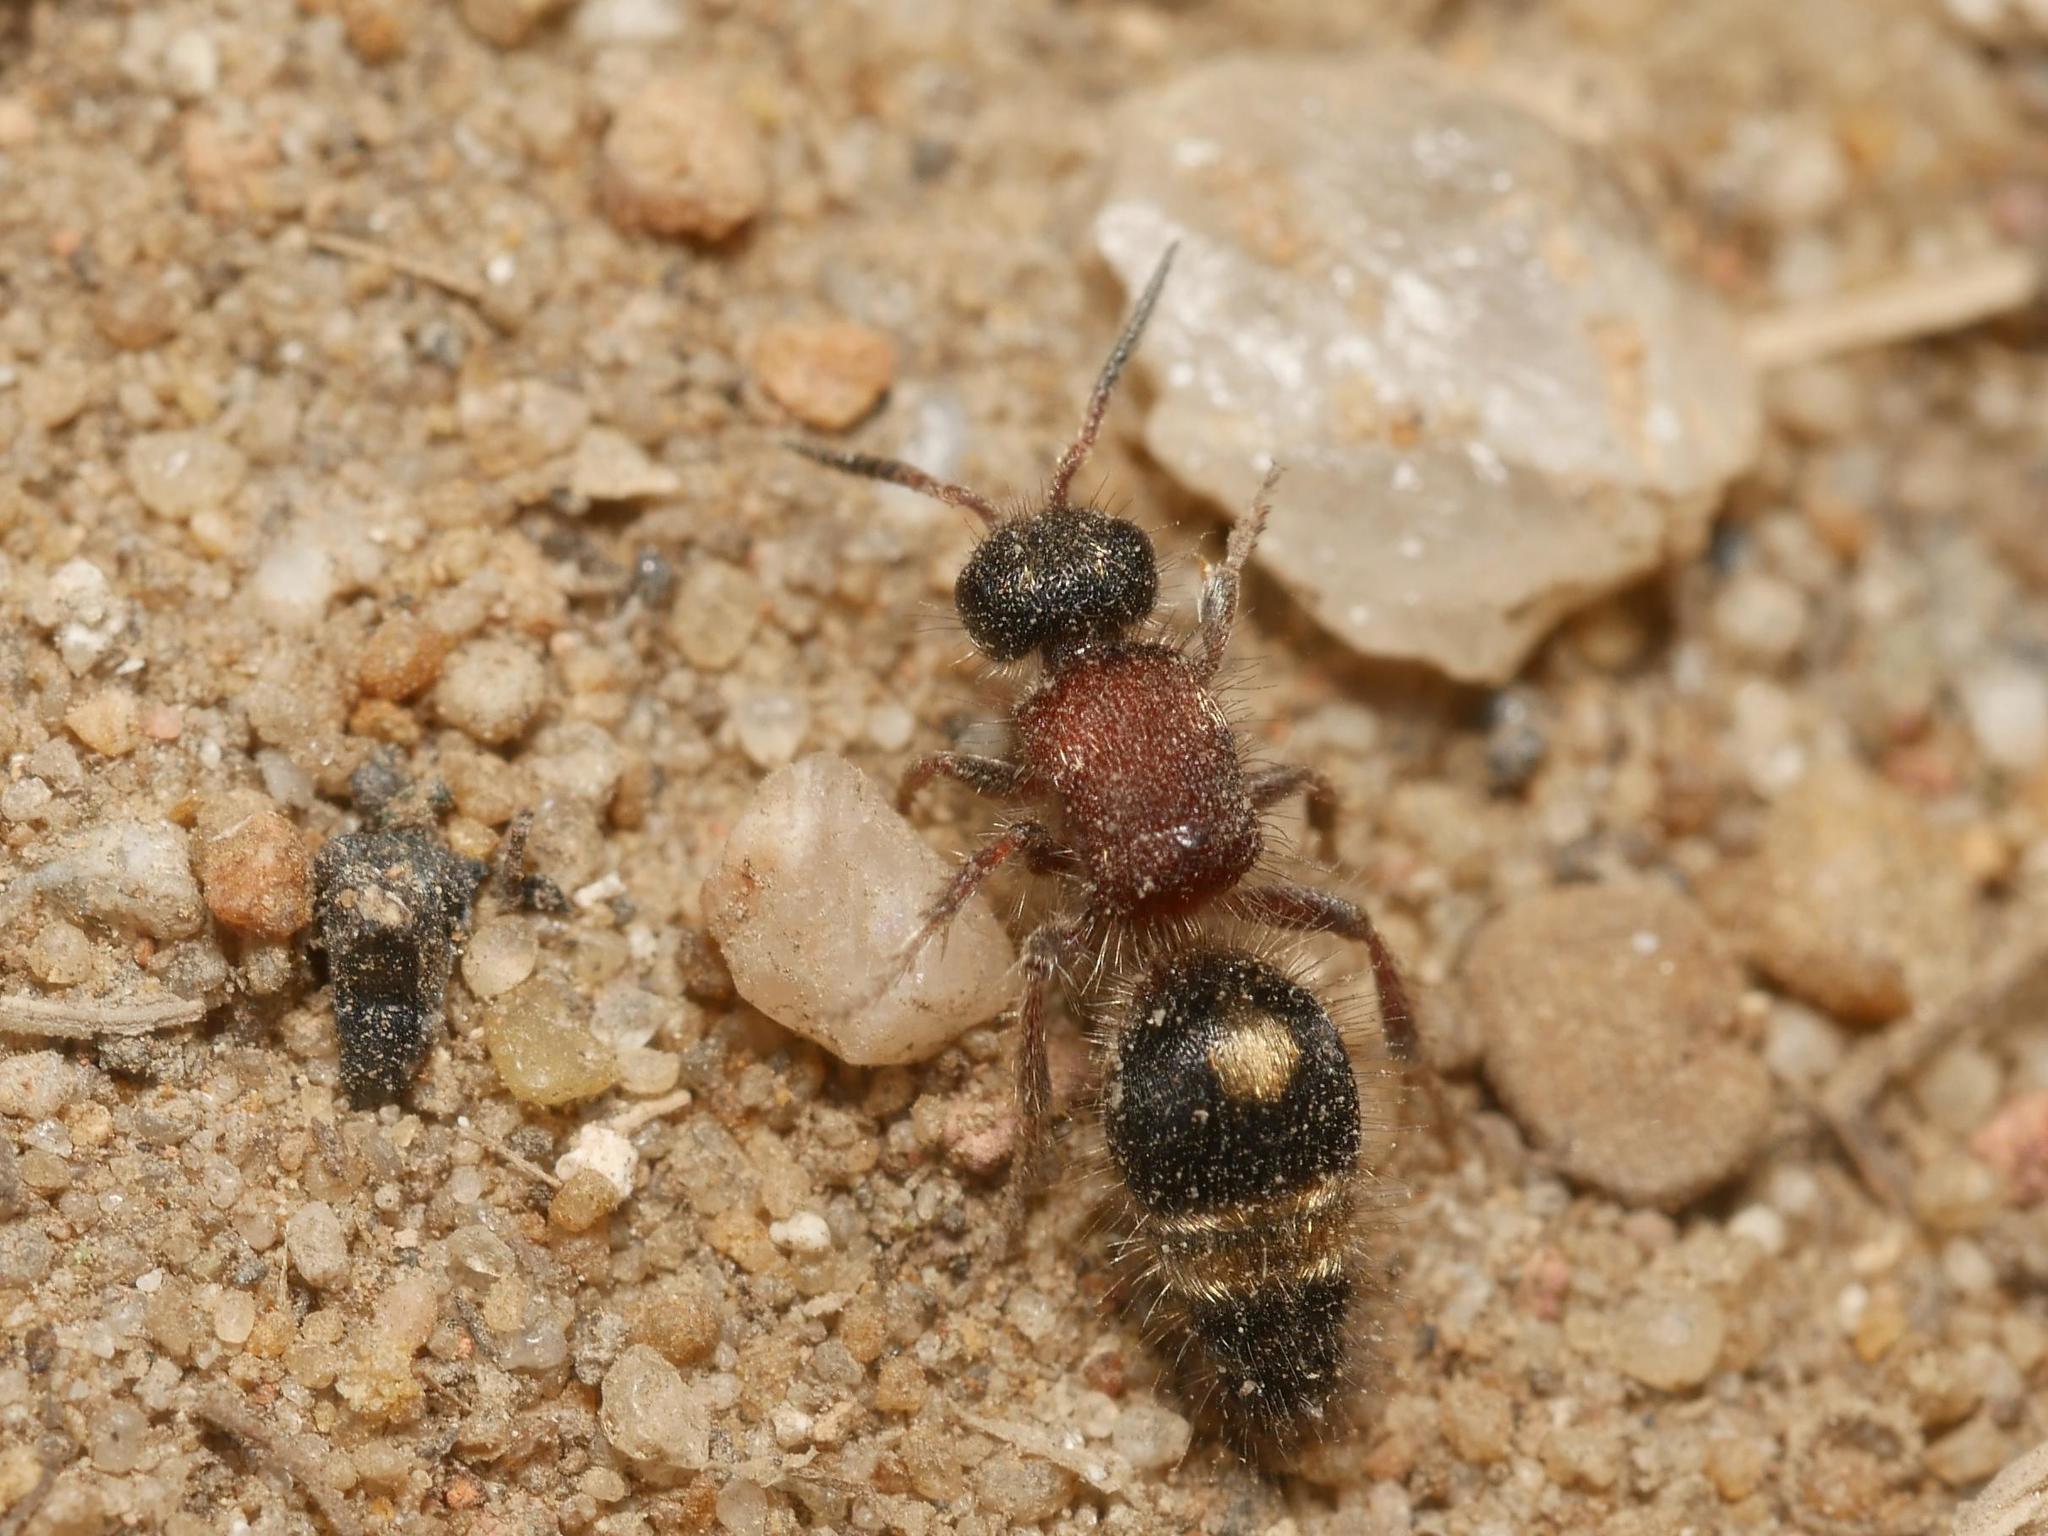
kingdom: Animalia
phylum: Arthropoda
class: Insecta
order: Hymenoptera
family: Mutillidae
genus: Smicromyrme
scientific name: Smicromyrme rufipes
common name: Small velvet ant
